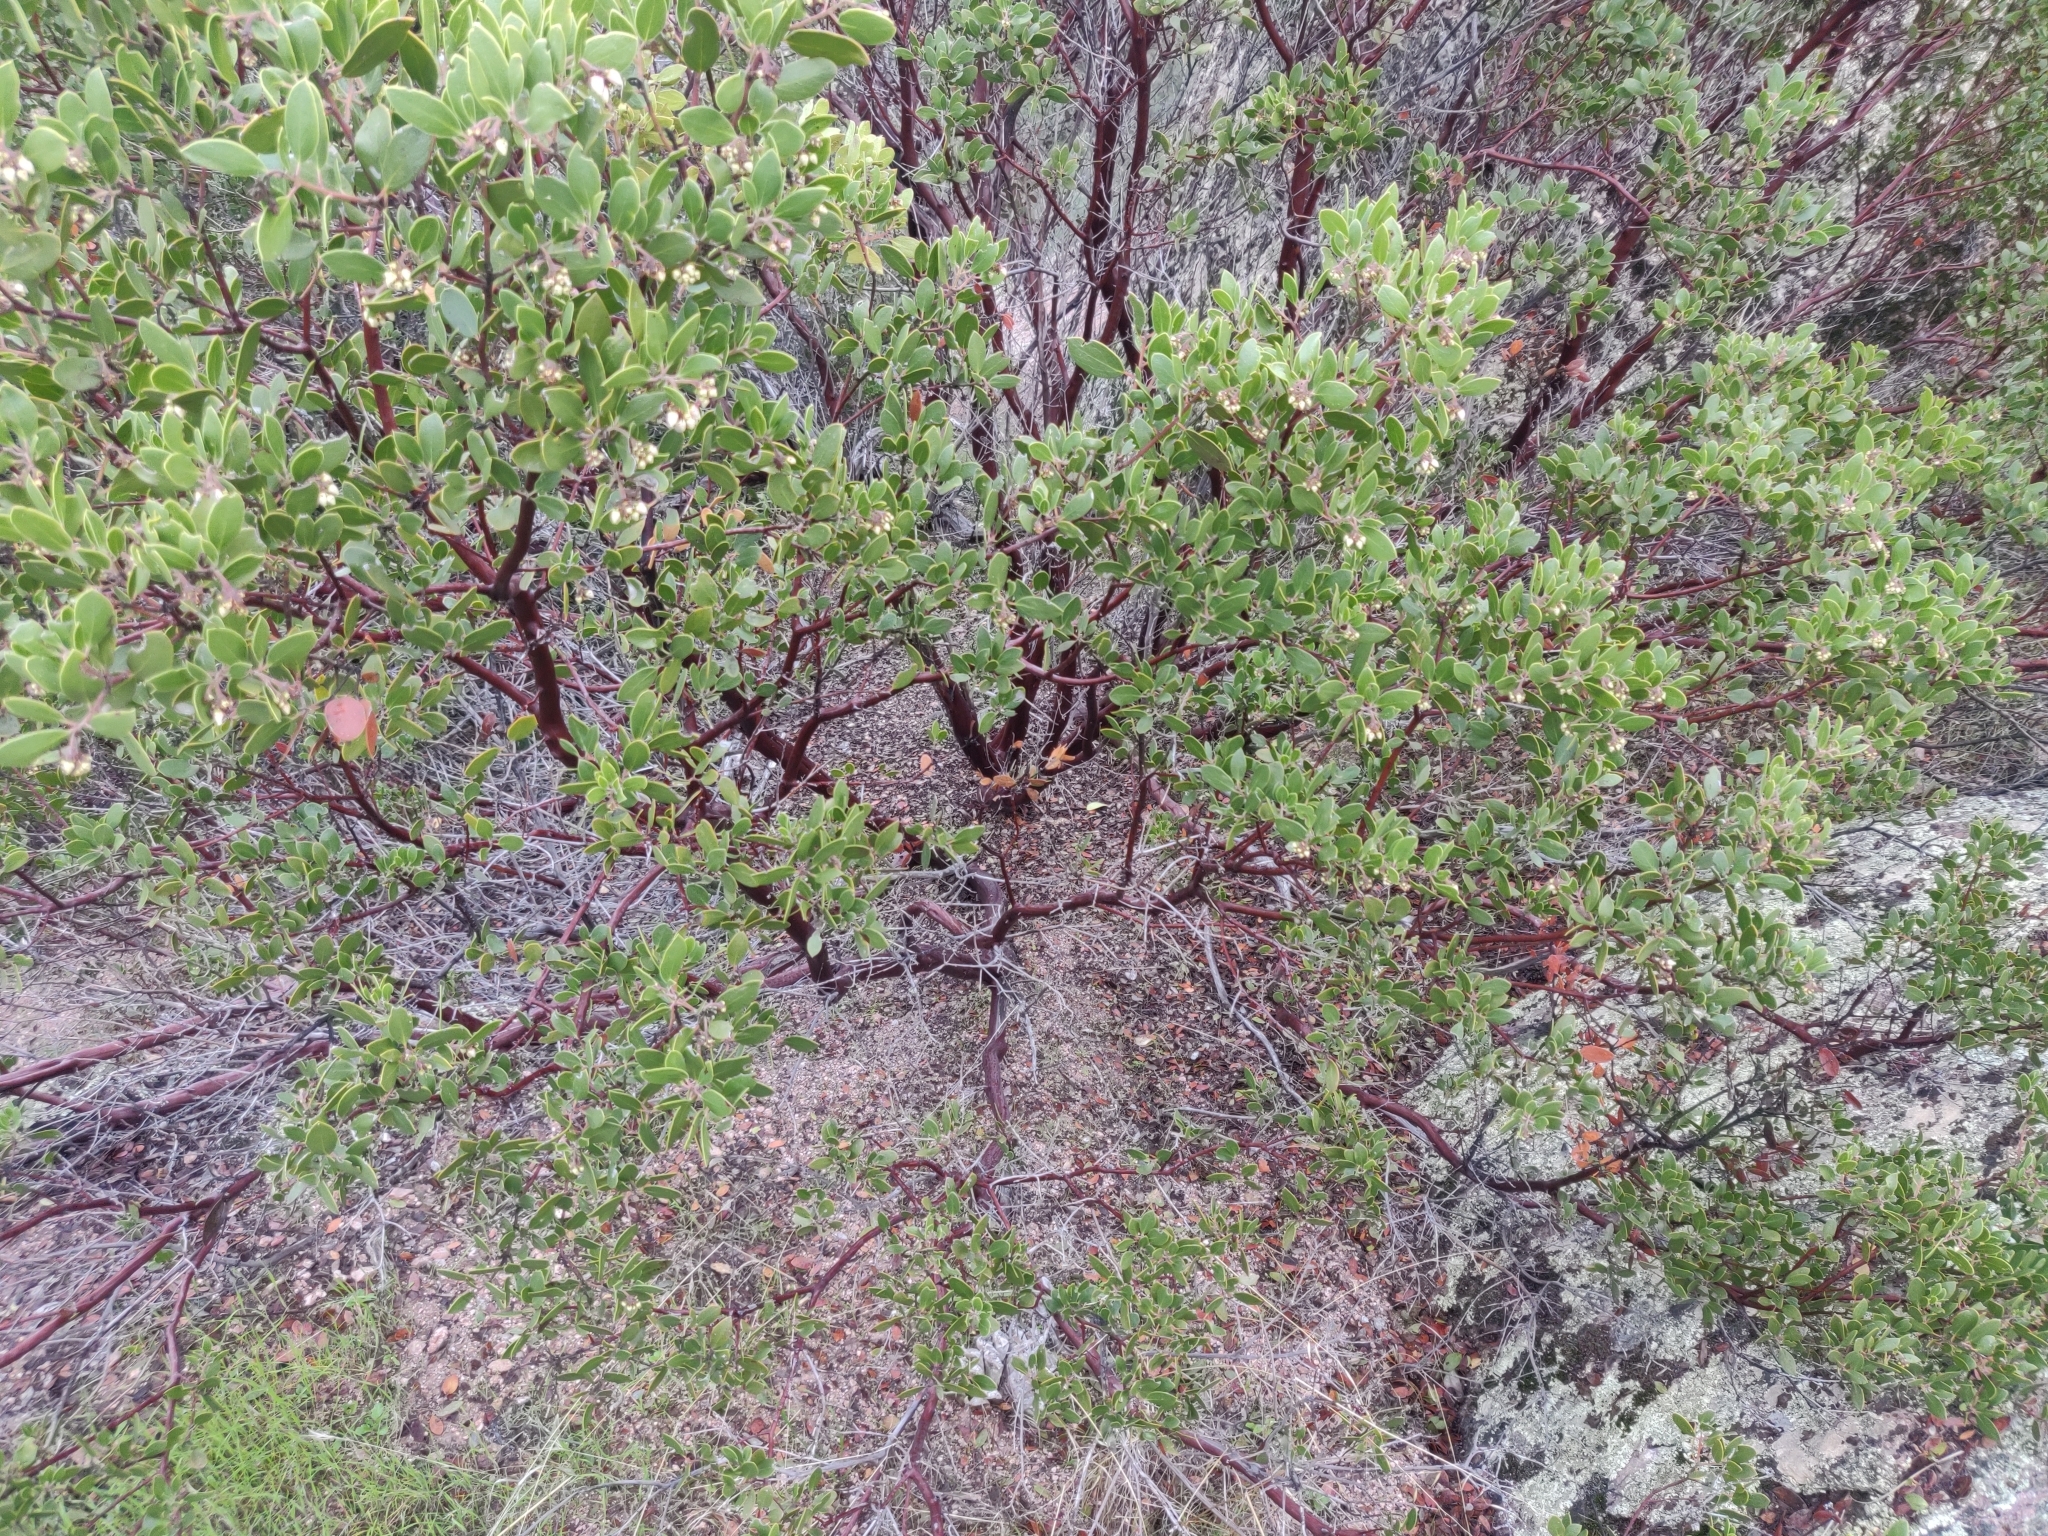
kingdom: Plantae
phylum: Tracheophyta
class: Magnoliopsida
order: Ericales
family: Ericaceae
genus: Arctostaphylos
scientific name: Arctostaphylos pungens
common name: Mexican manzanita
